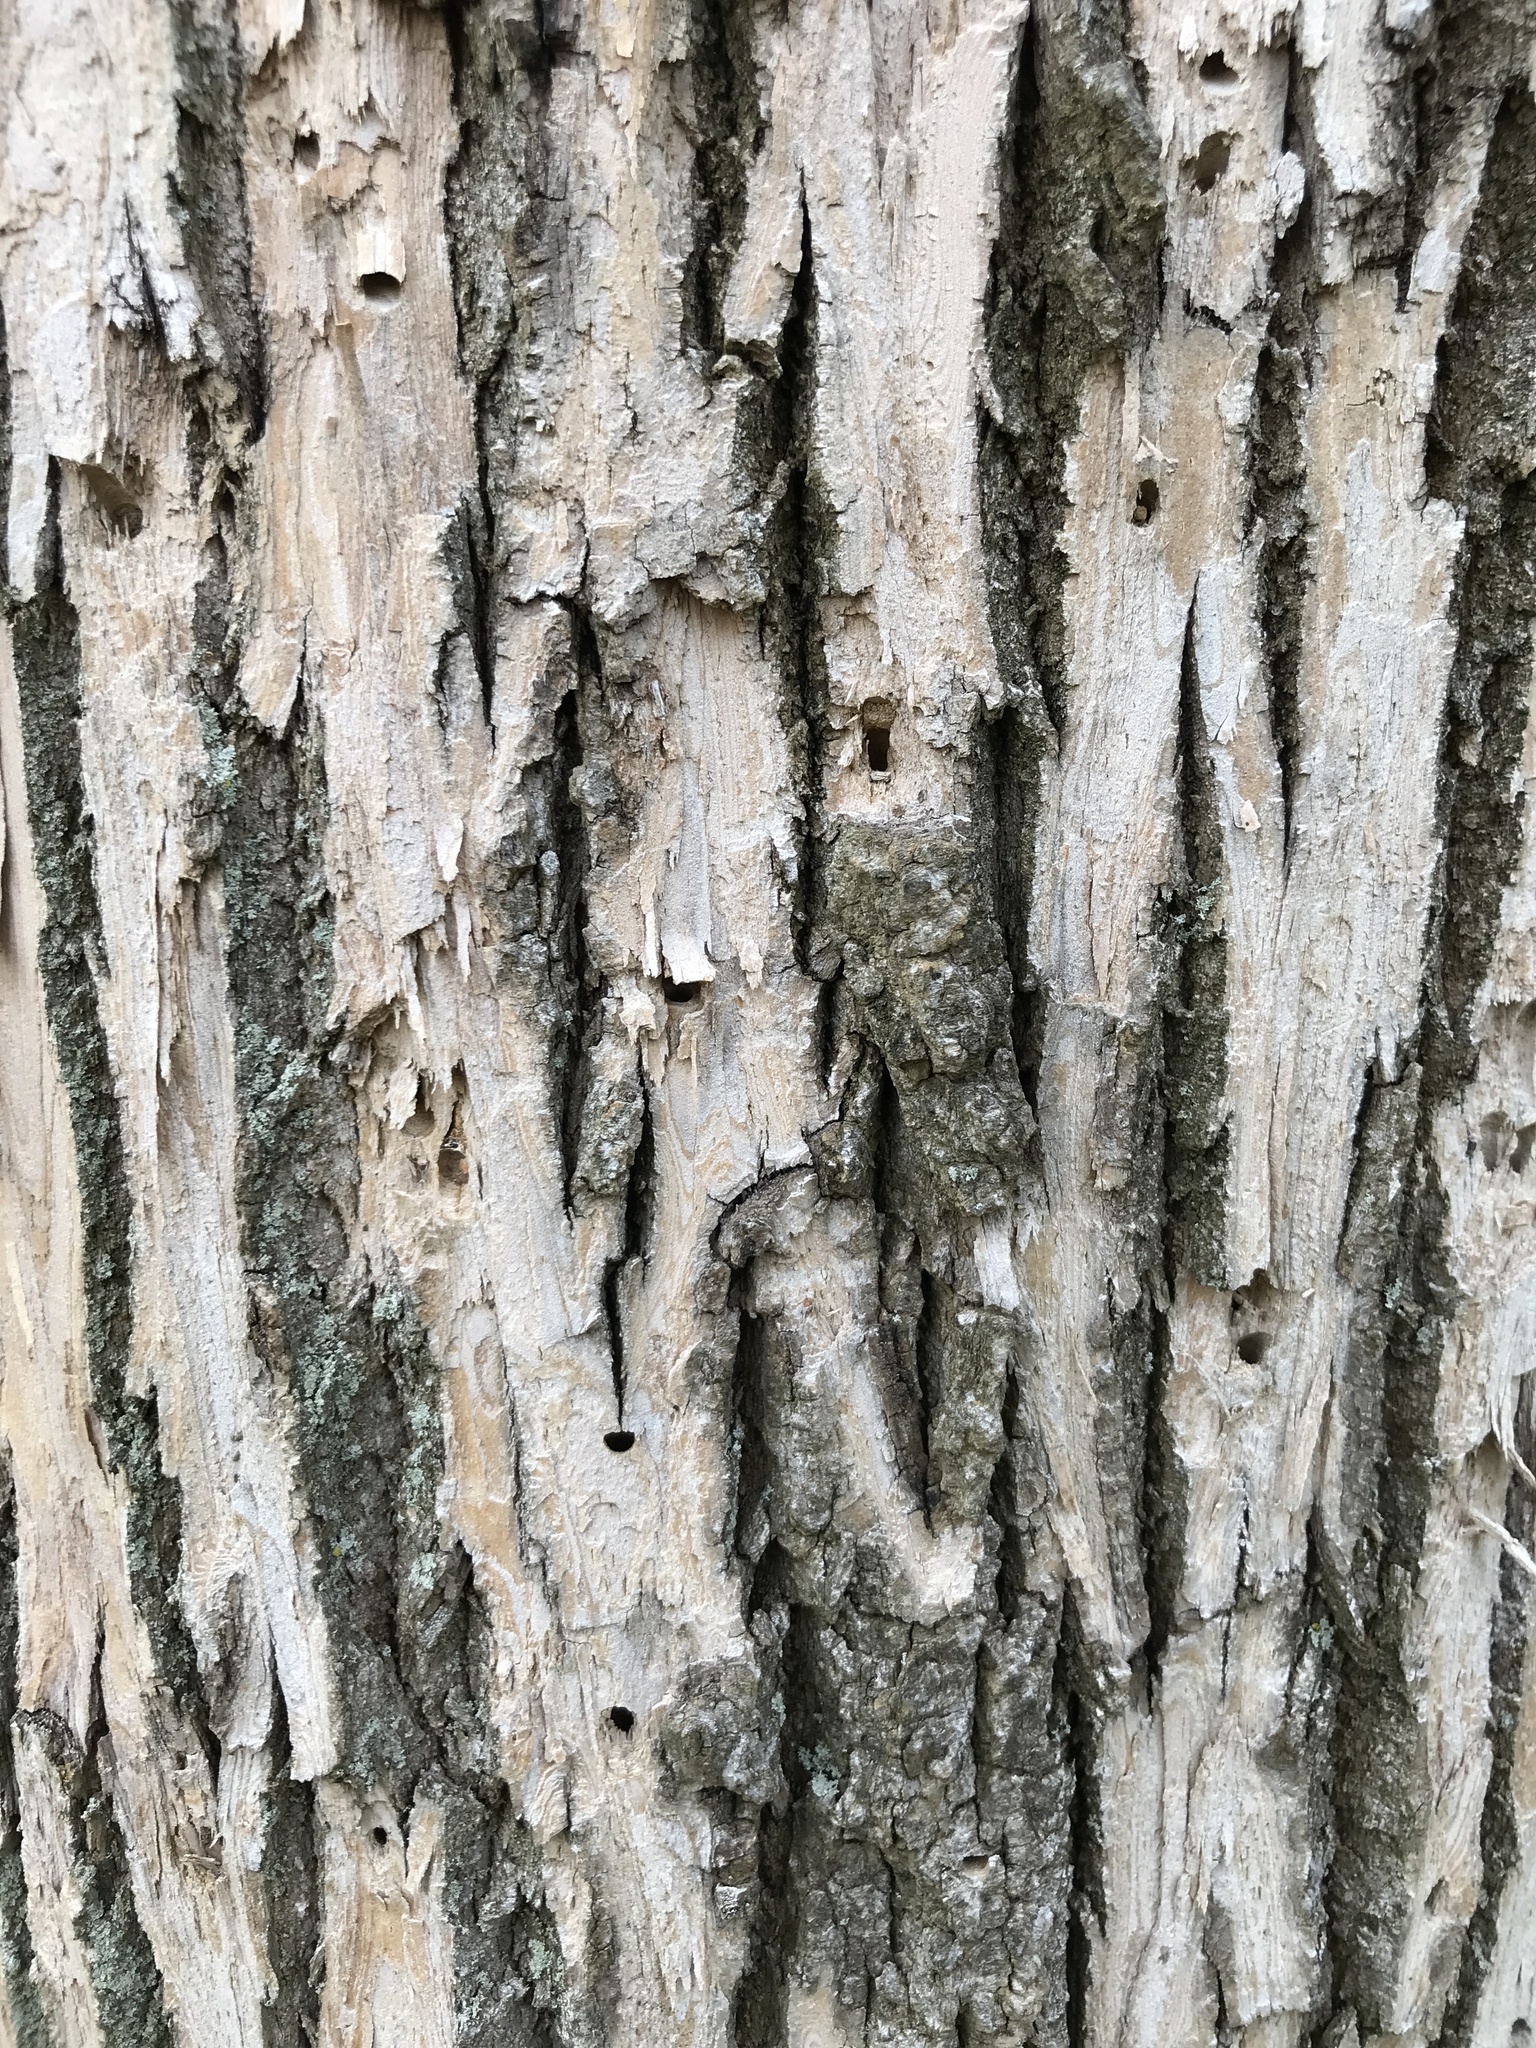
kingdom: Animalia
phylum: Arthropoda
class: Insecta
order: Coleoptera
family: Buprestidae
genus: Agrilus
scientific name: Agrilus planipennis
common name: Emerald ash borer
